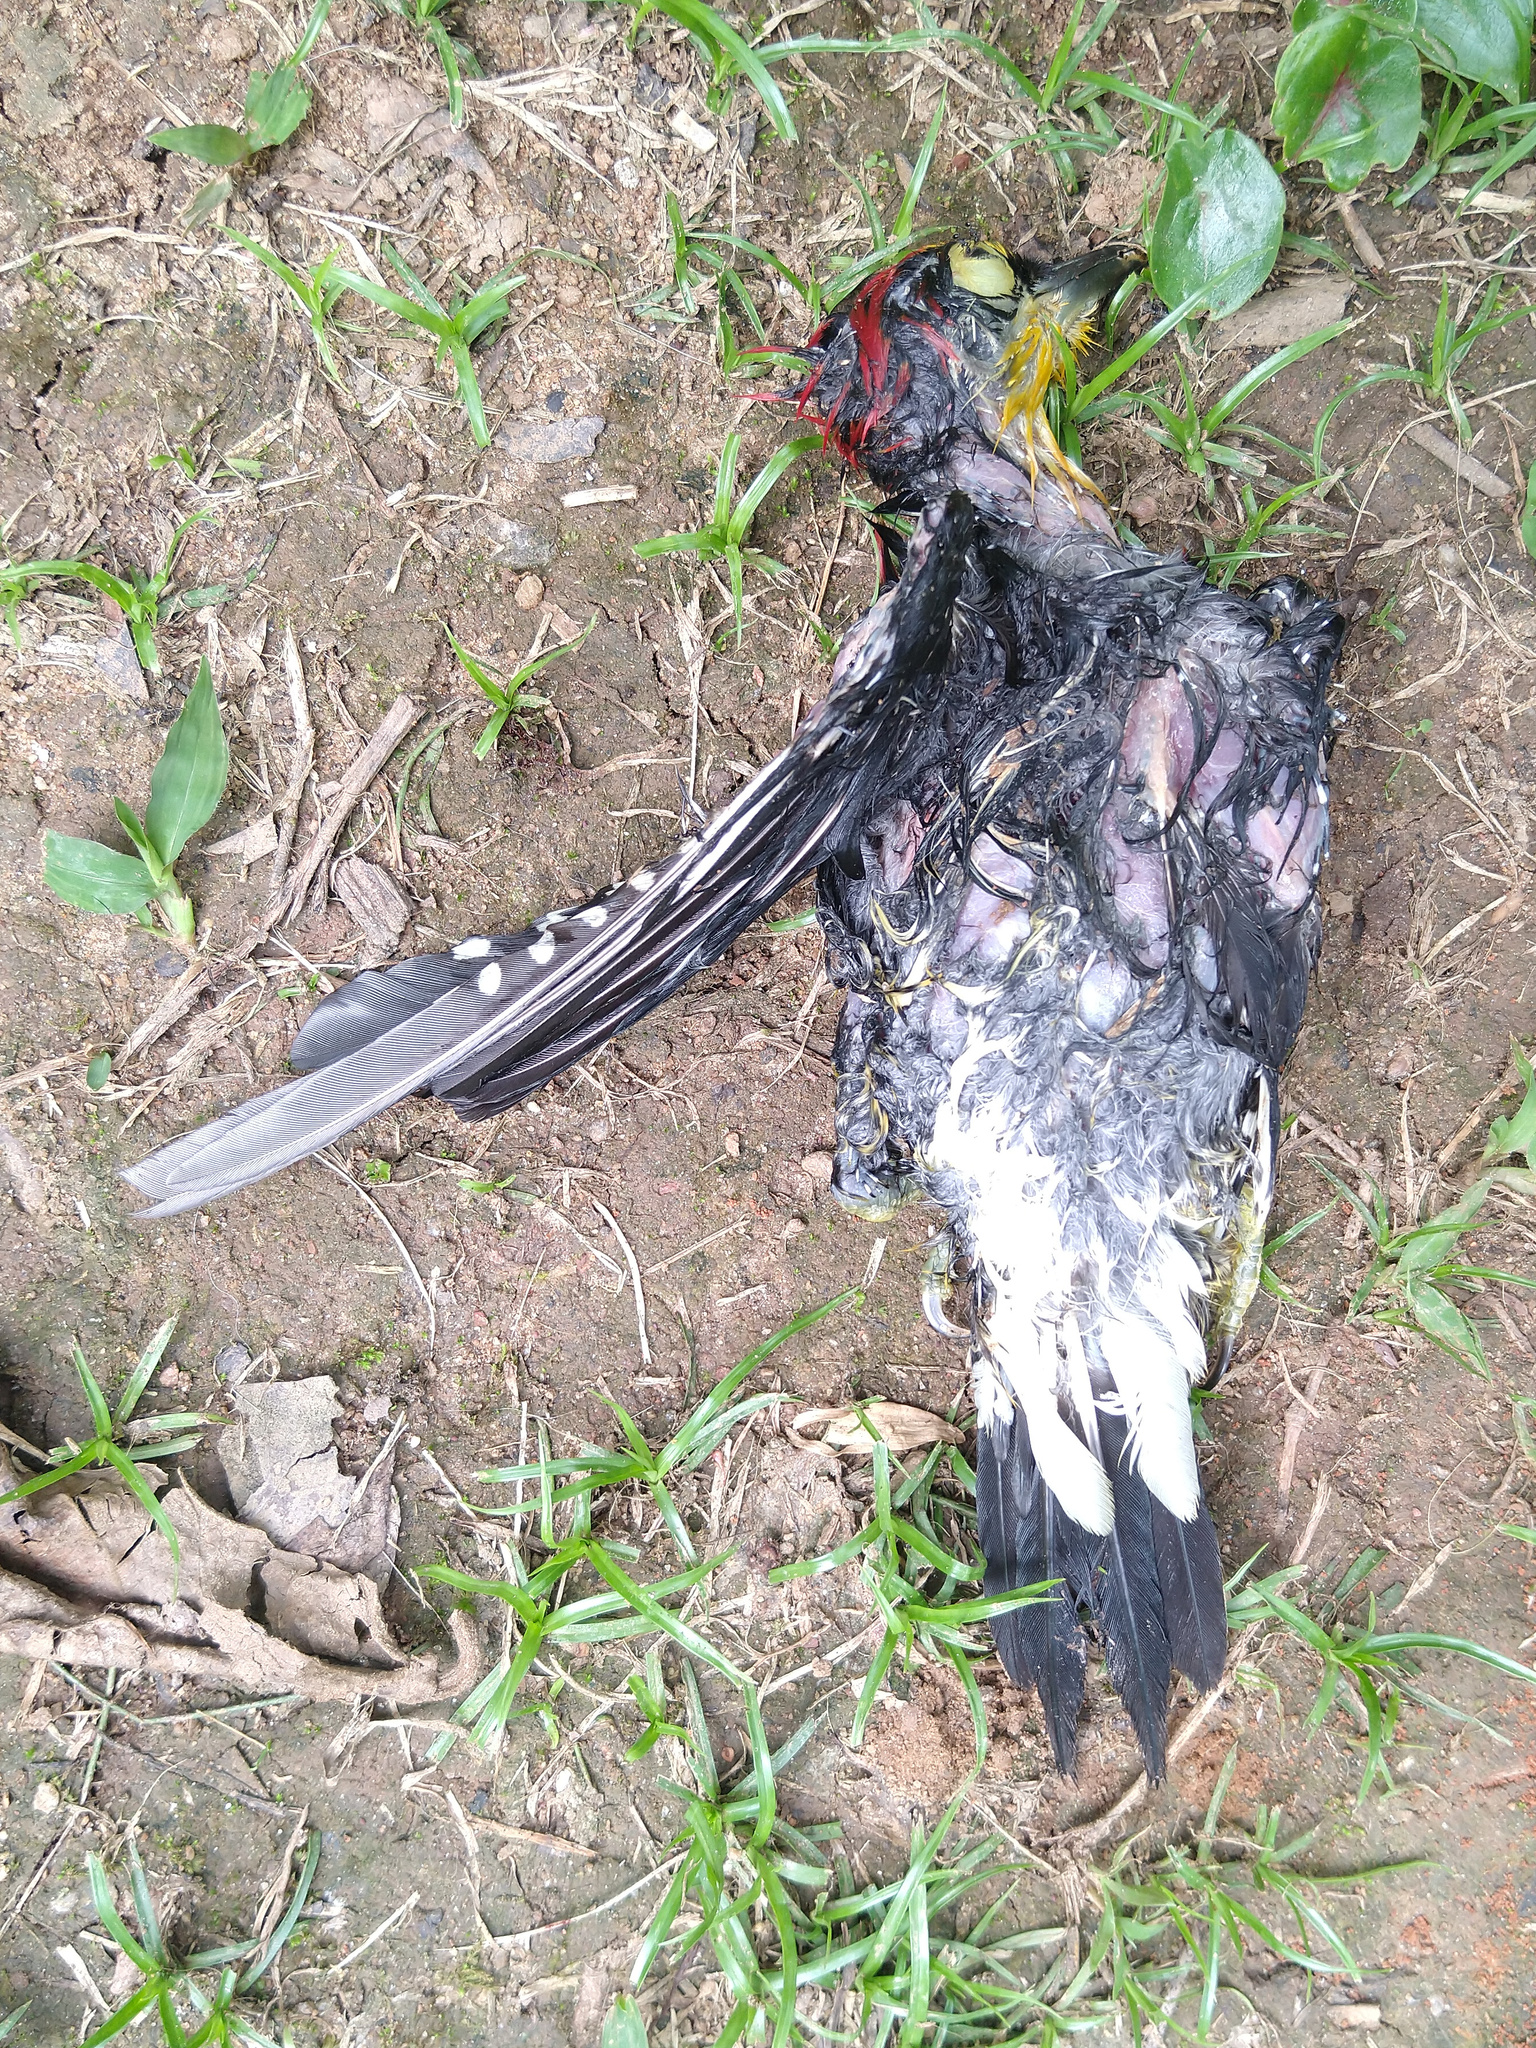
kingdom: Animalia
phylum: Chordata
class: Aves
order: Piciformes
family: Picidae
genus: Melanerpes
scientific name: Melanerpes flavifrons
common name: Yellow-fronted woodpecker
